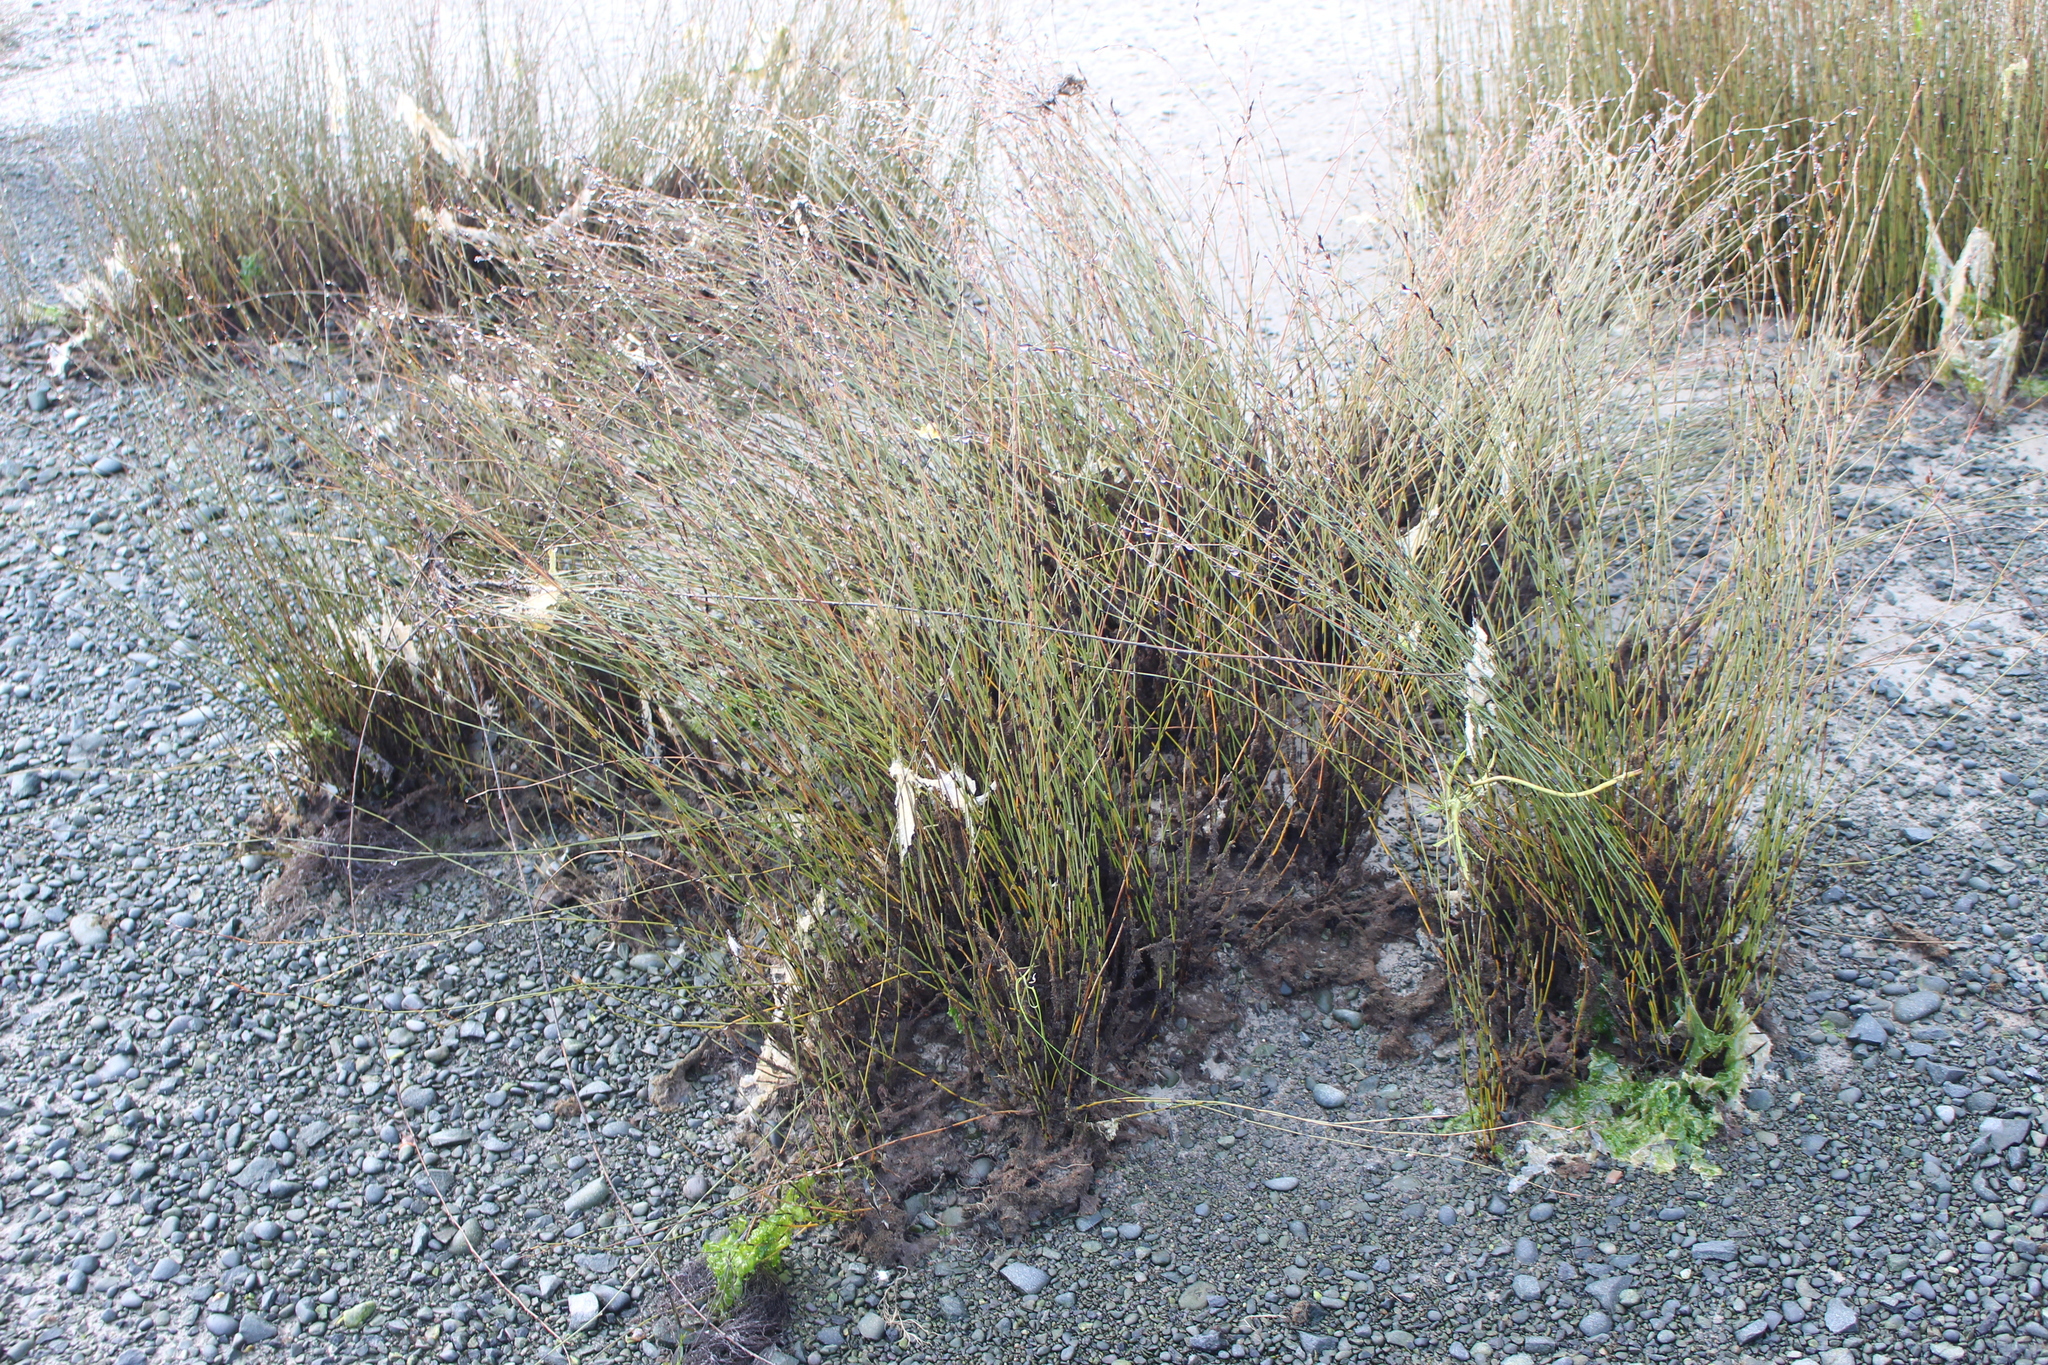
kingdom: Plantae
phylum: Tracheophyta
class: Liliopsida
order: Poales
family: Restionaceae
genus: Apodasmia
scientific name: Apodasmia similis
